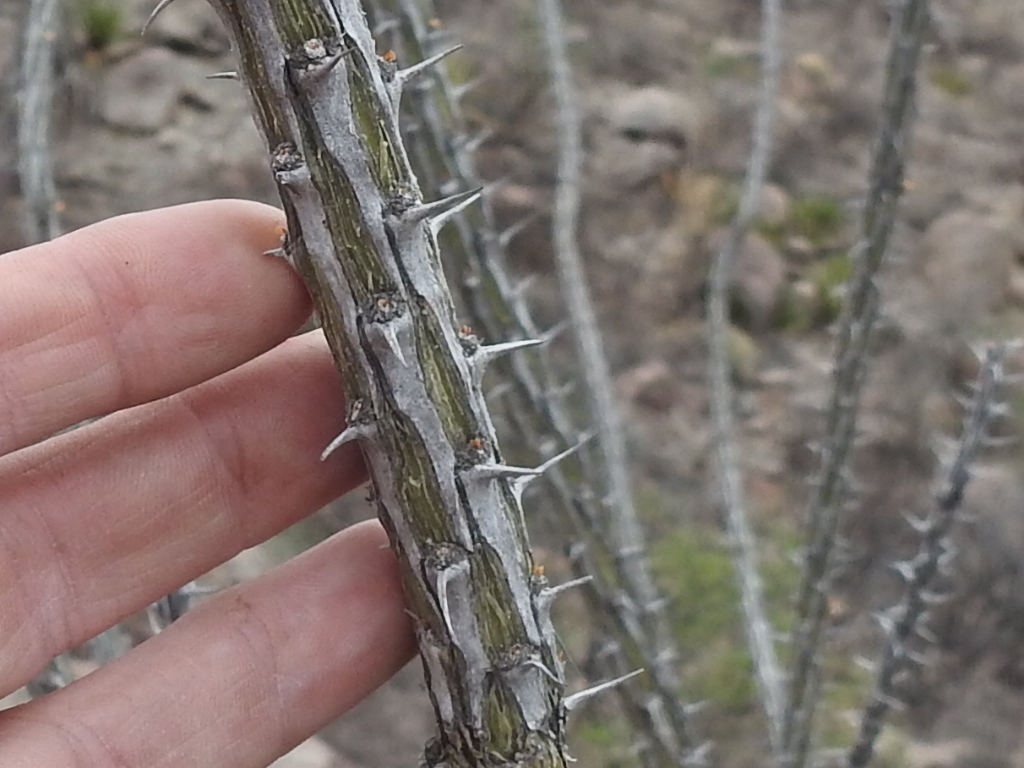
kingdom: Plantae
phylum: Tracheophyta
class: Magnoliopsida
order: Ericales
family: Fouquieriaceae
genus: Fouquieria
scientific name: Fouquieria splendens
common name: Vine-cactus
